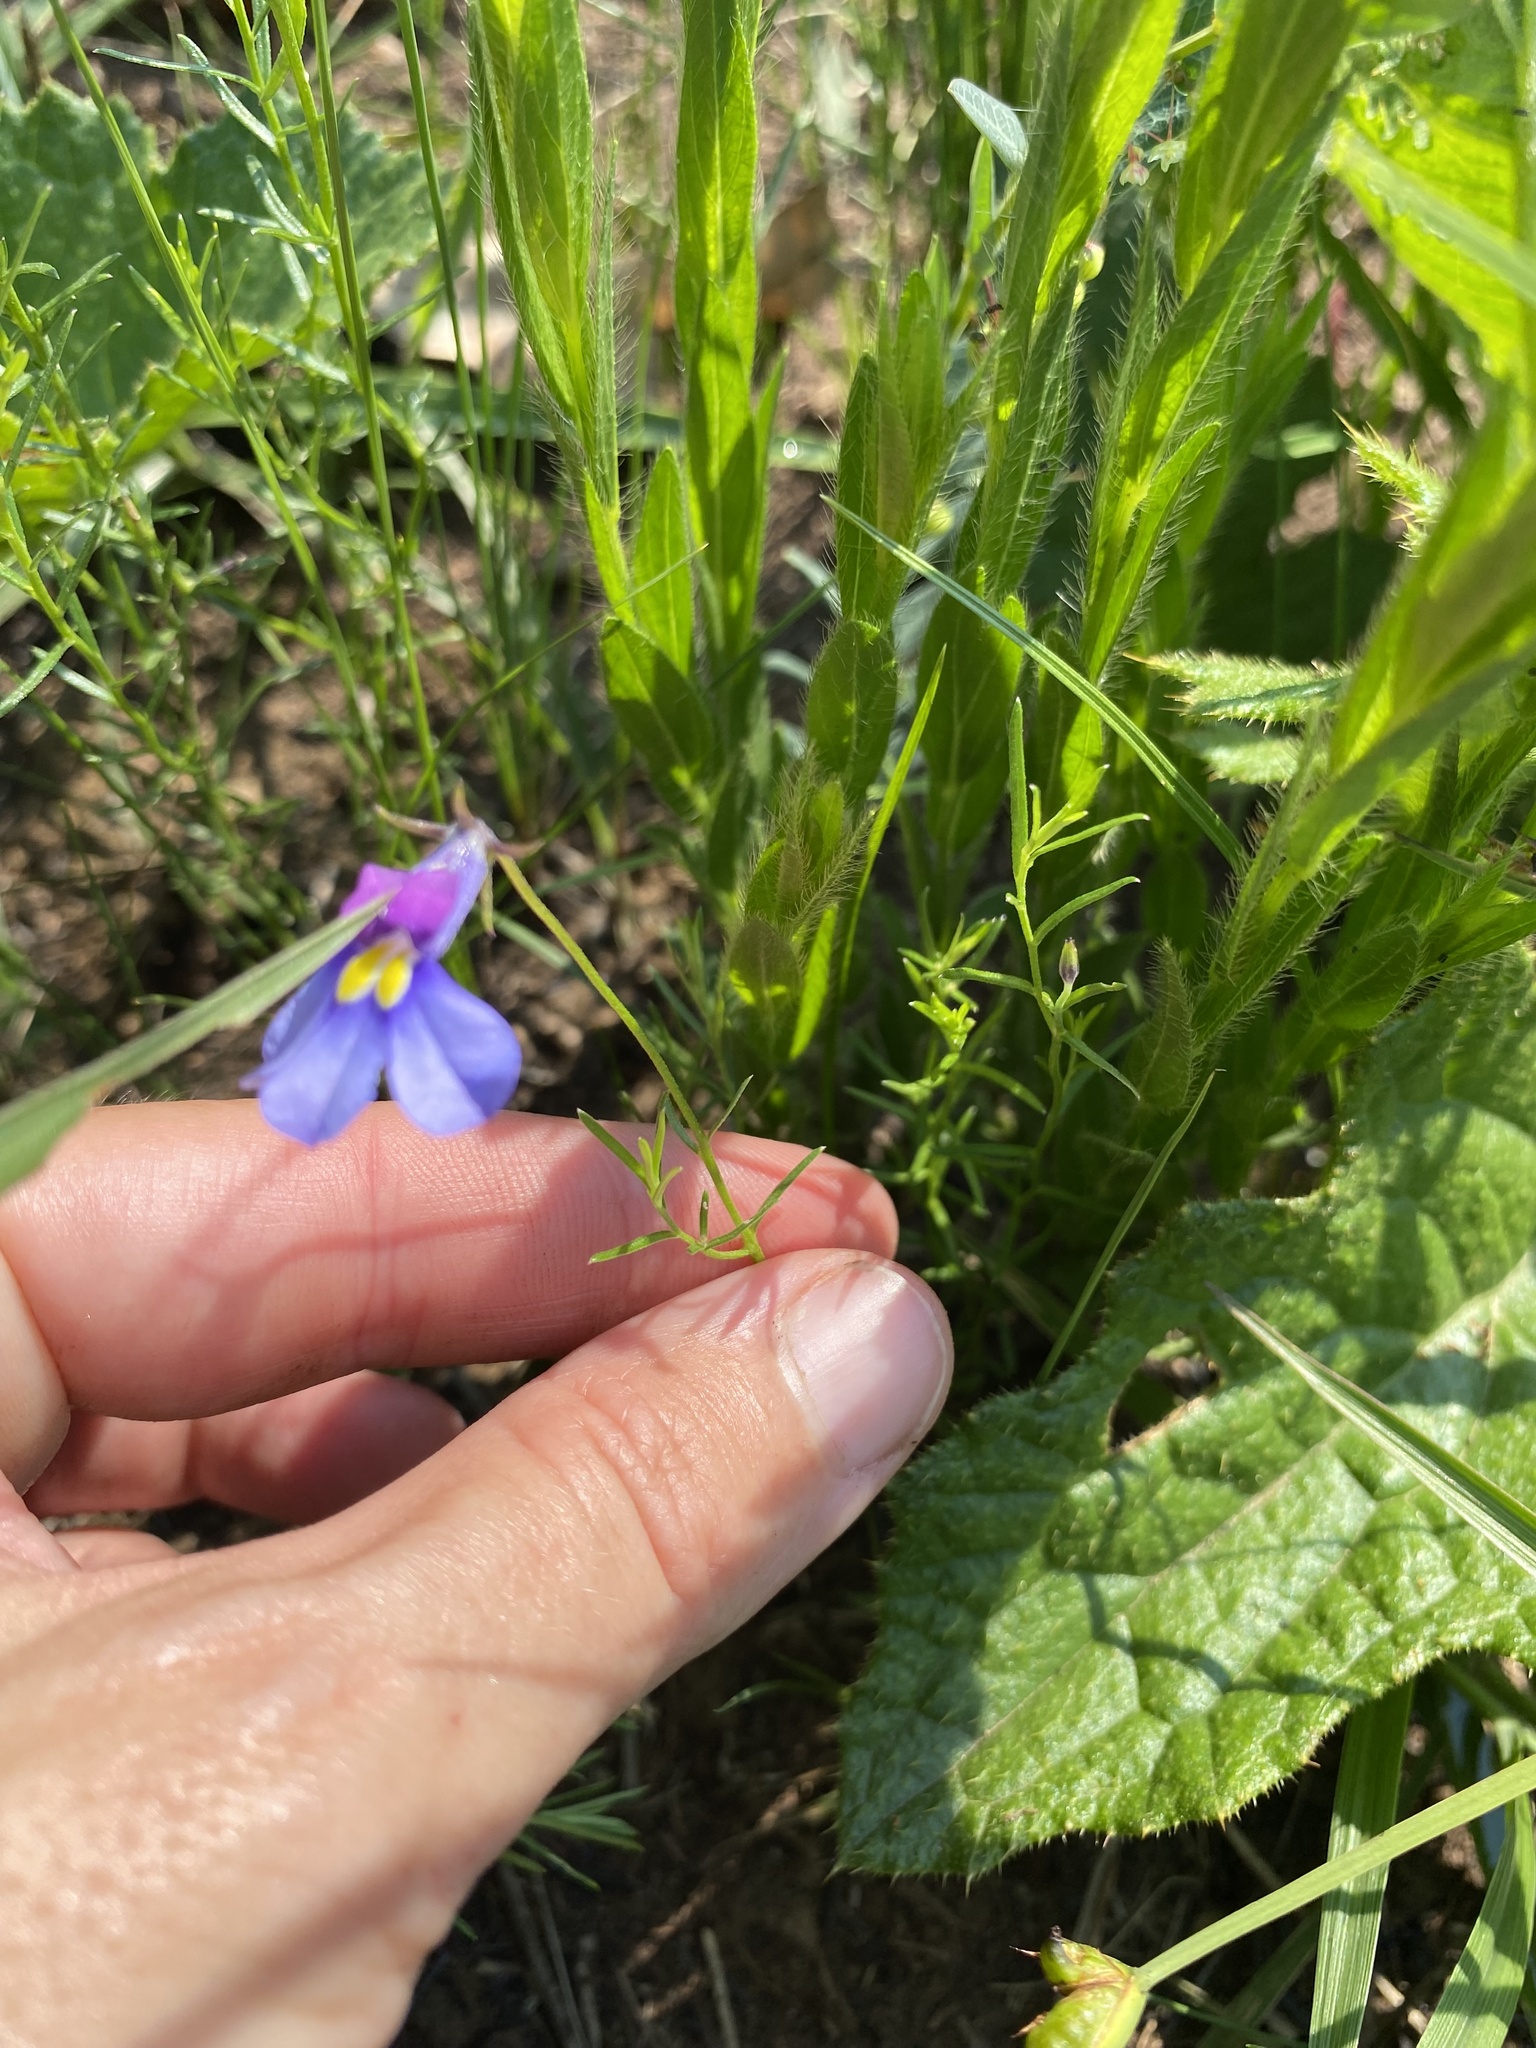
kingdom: Plantae
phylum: Tracheophyta
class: Magnoliopsida
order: Asterales
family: Campanulaceae
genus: Monopsis
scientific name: Monopsis decipiens
